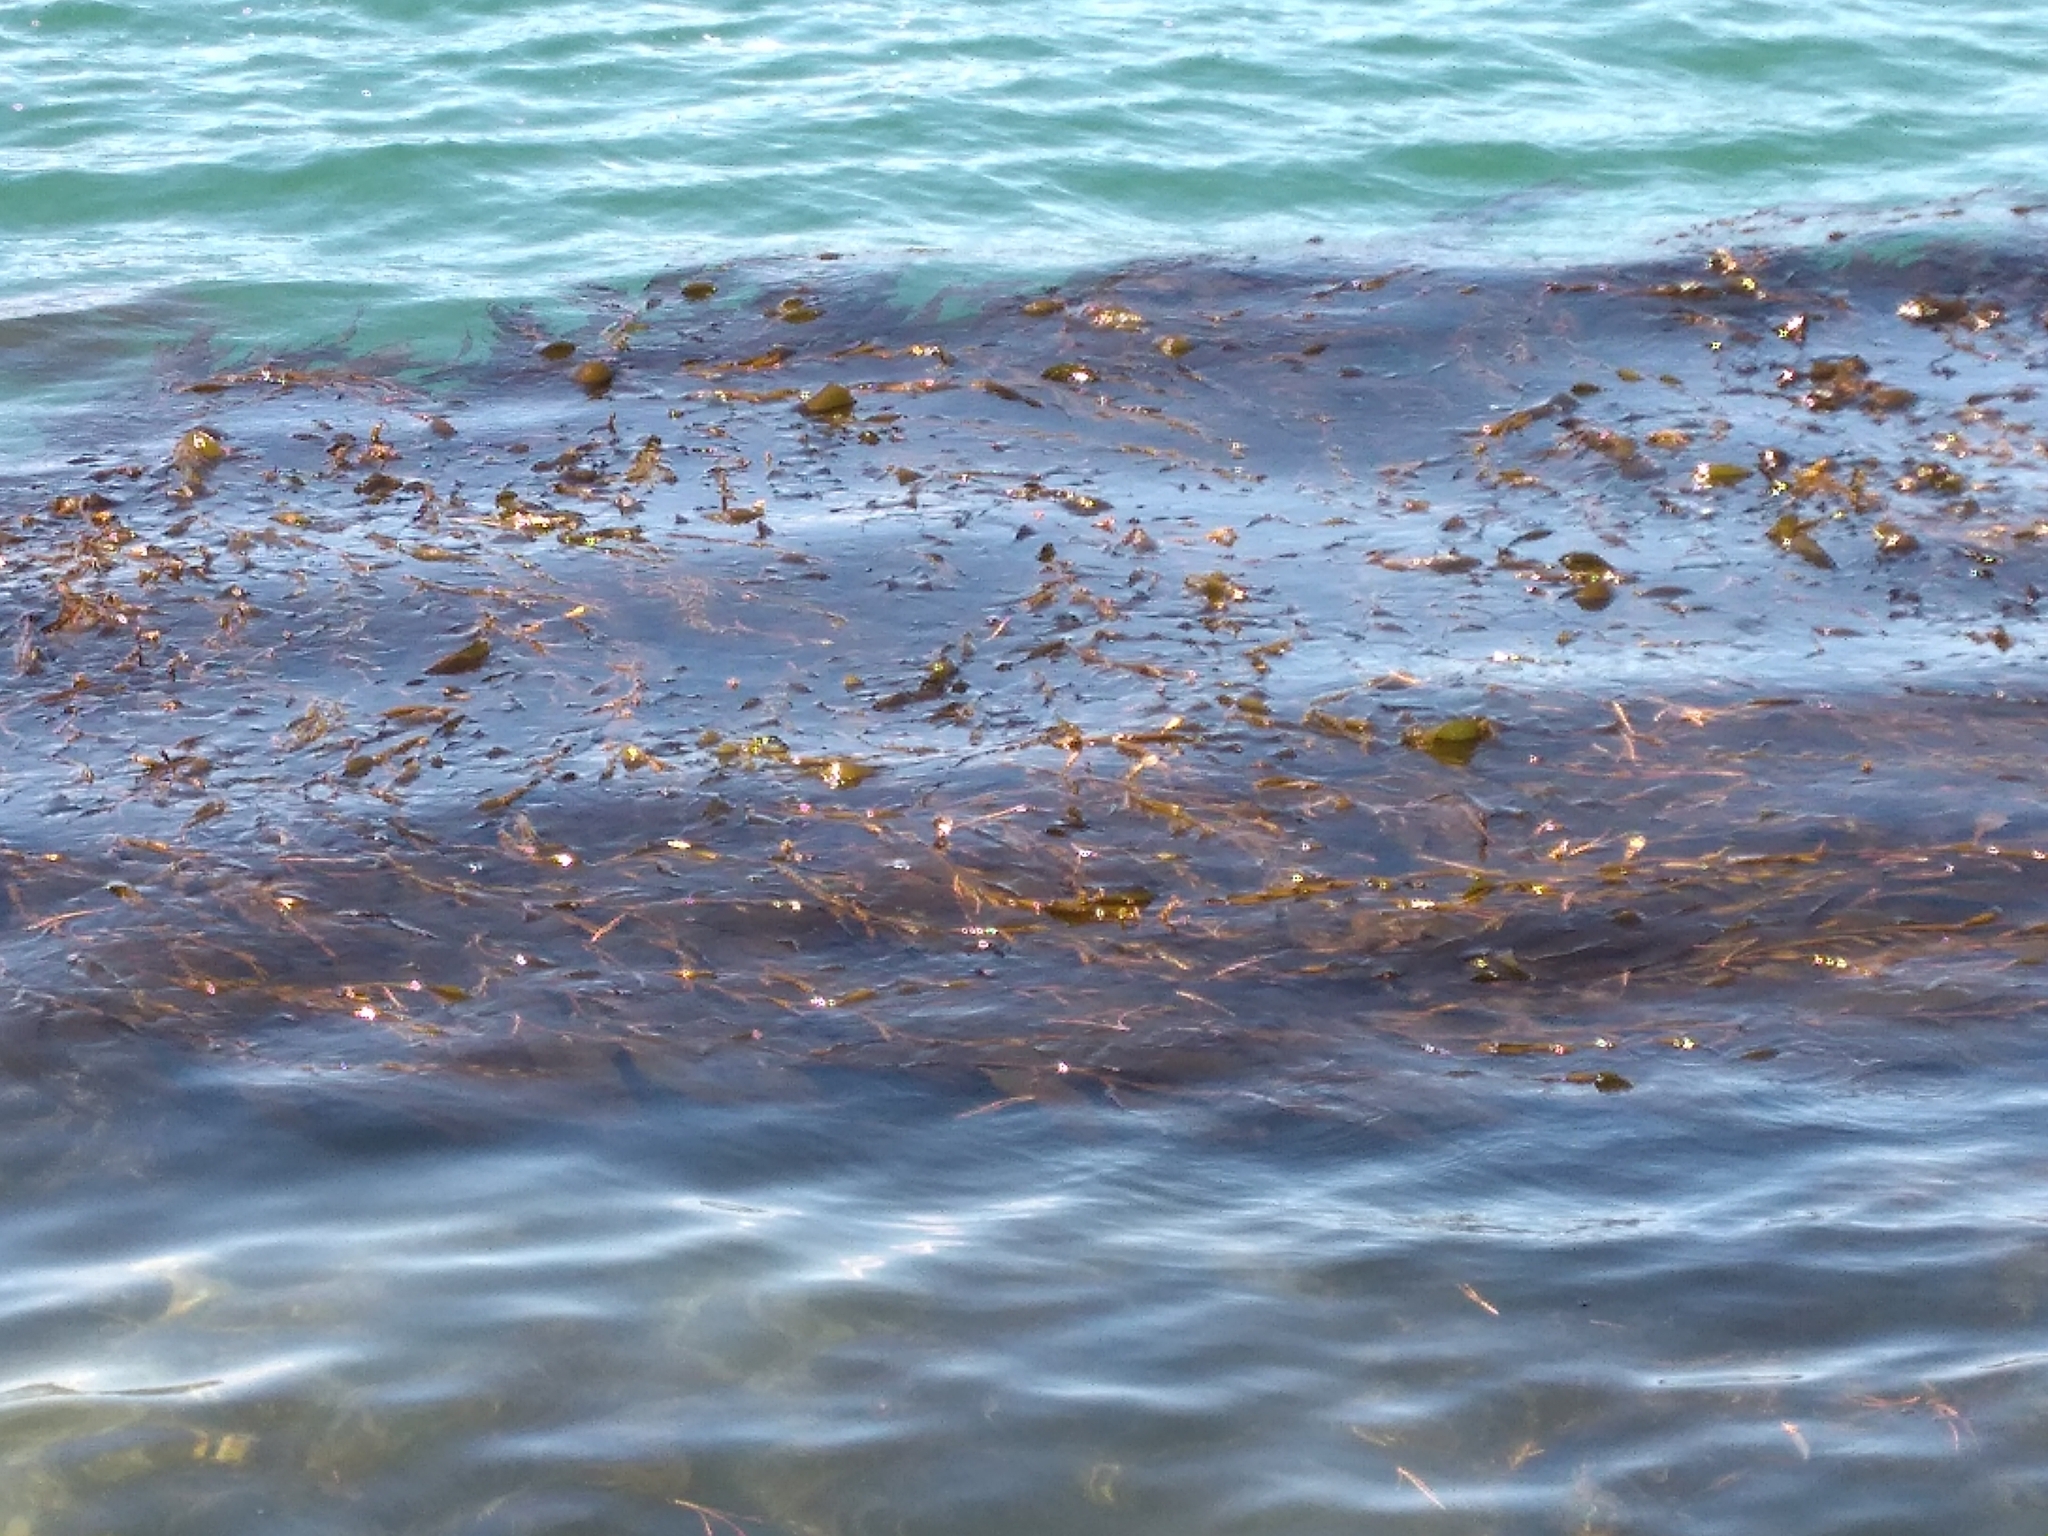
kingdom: Chromista
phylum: Ochrophyta
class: Phaeophyceae
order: Laminariales
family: Laminariaceae
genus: Macrocystis
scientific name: Macrocystis pyrifera
